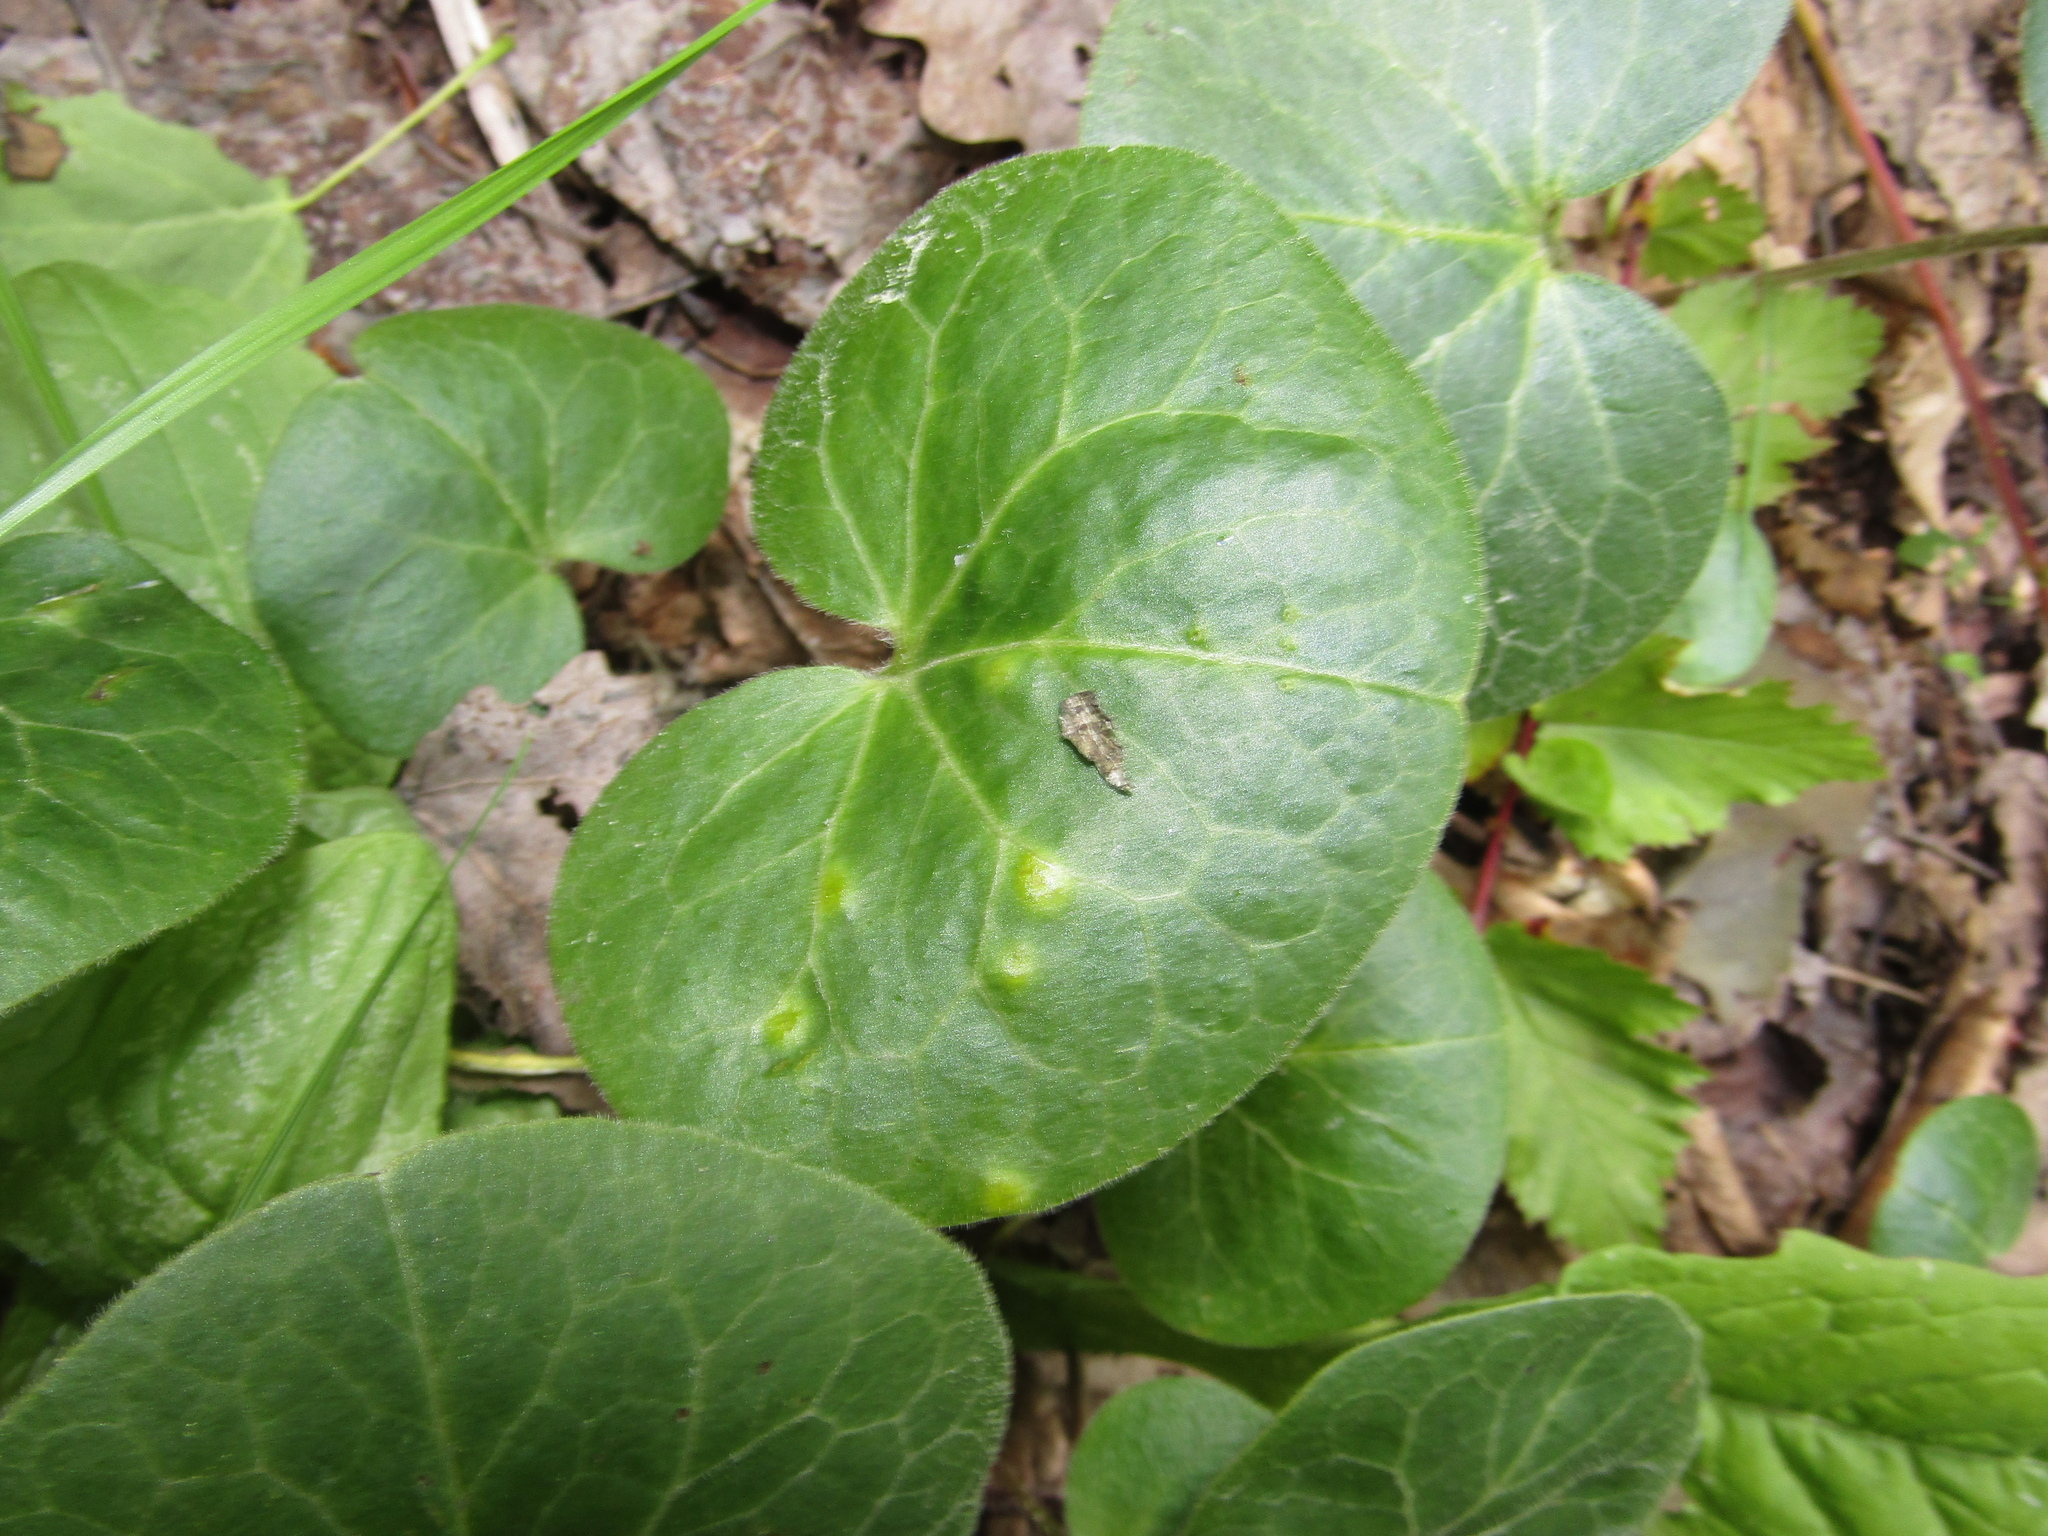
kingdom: Plantae
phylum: Tracheophyta
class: Magnoliopsida
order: Piperales
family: Aristolochiaceae
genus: Asarum
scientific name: Asarum europaeum
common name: Asarabacca
